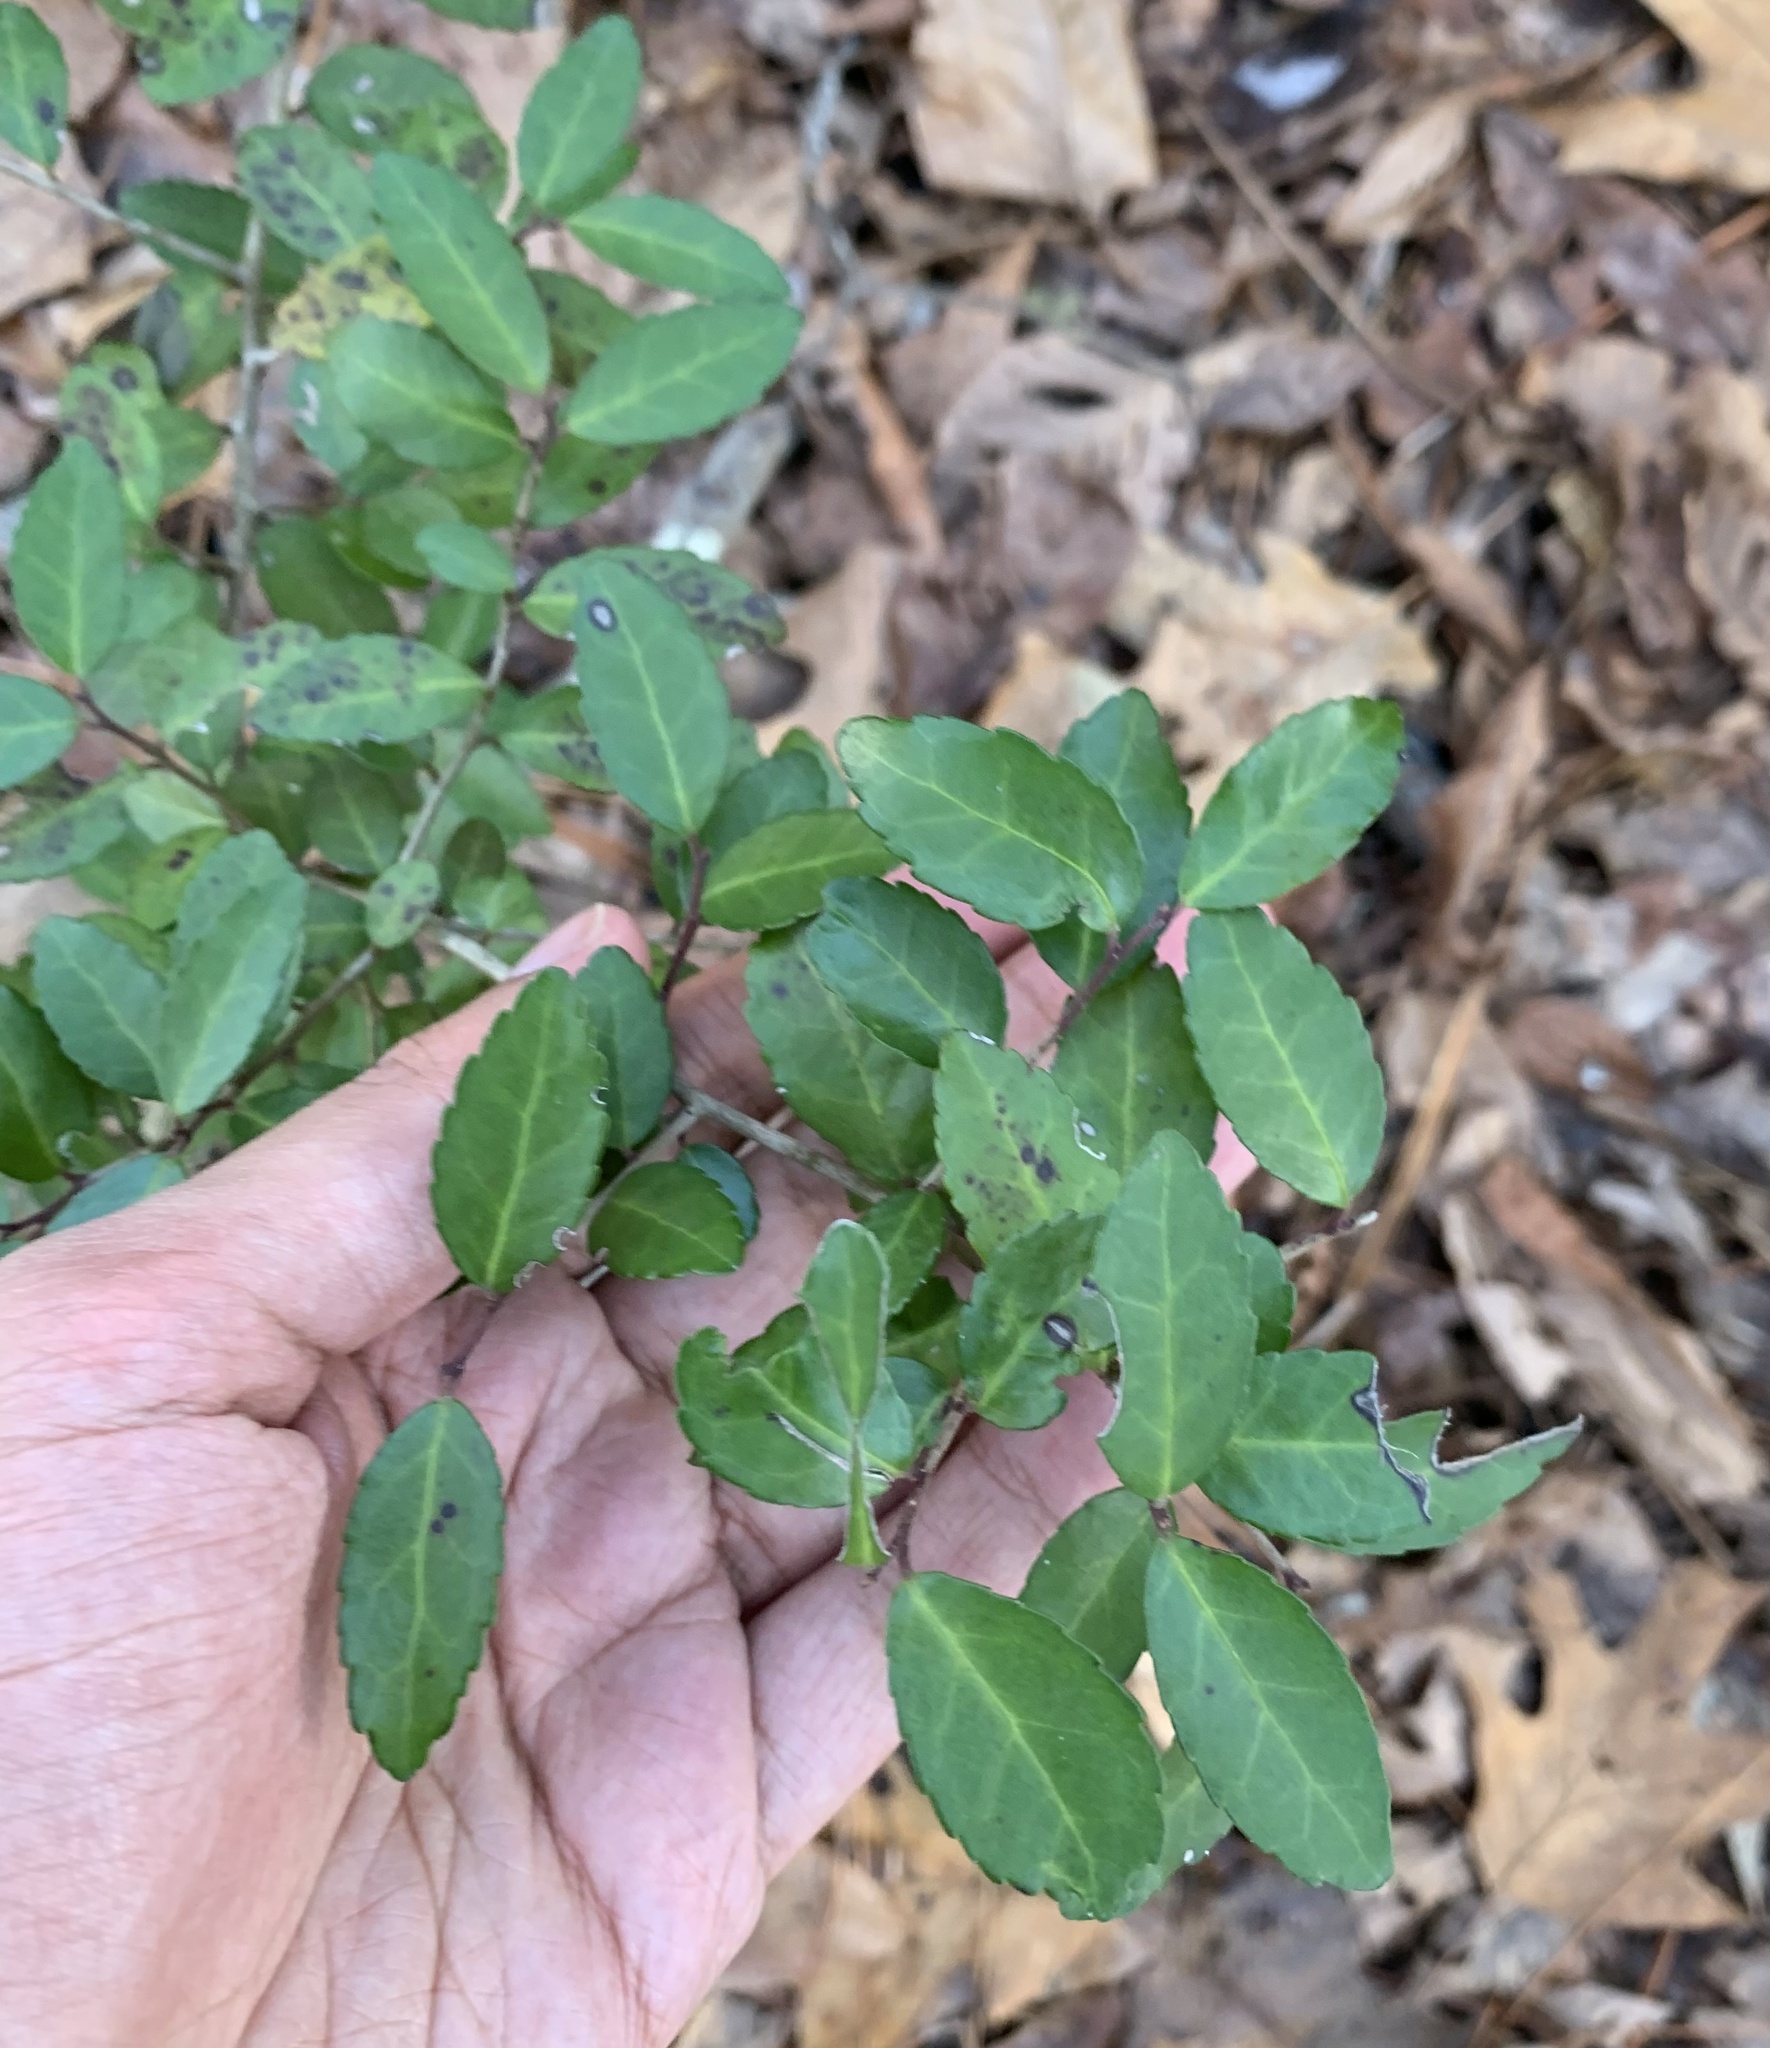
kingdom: Plantae
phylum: Tracheophyta
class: Magnoliopsida
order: Aquifoliales
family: Aquifoliaceae
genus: Ilex
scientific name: Ilex vomitoria
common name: Yaupon holly
